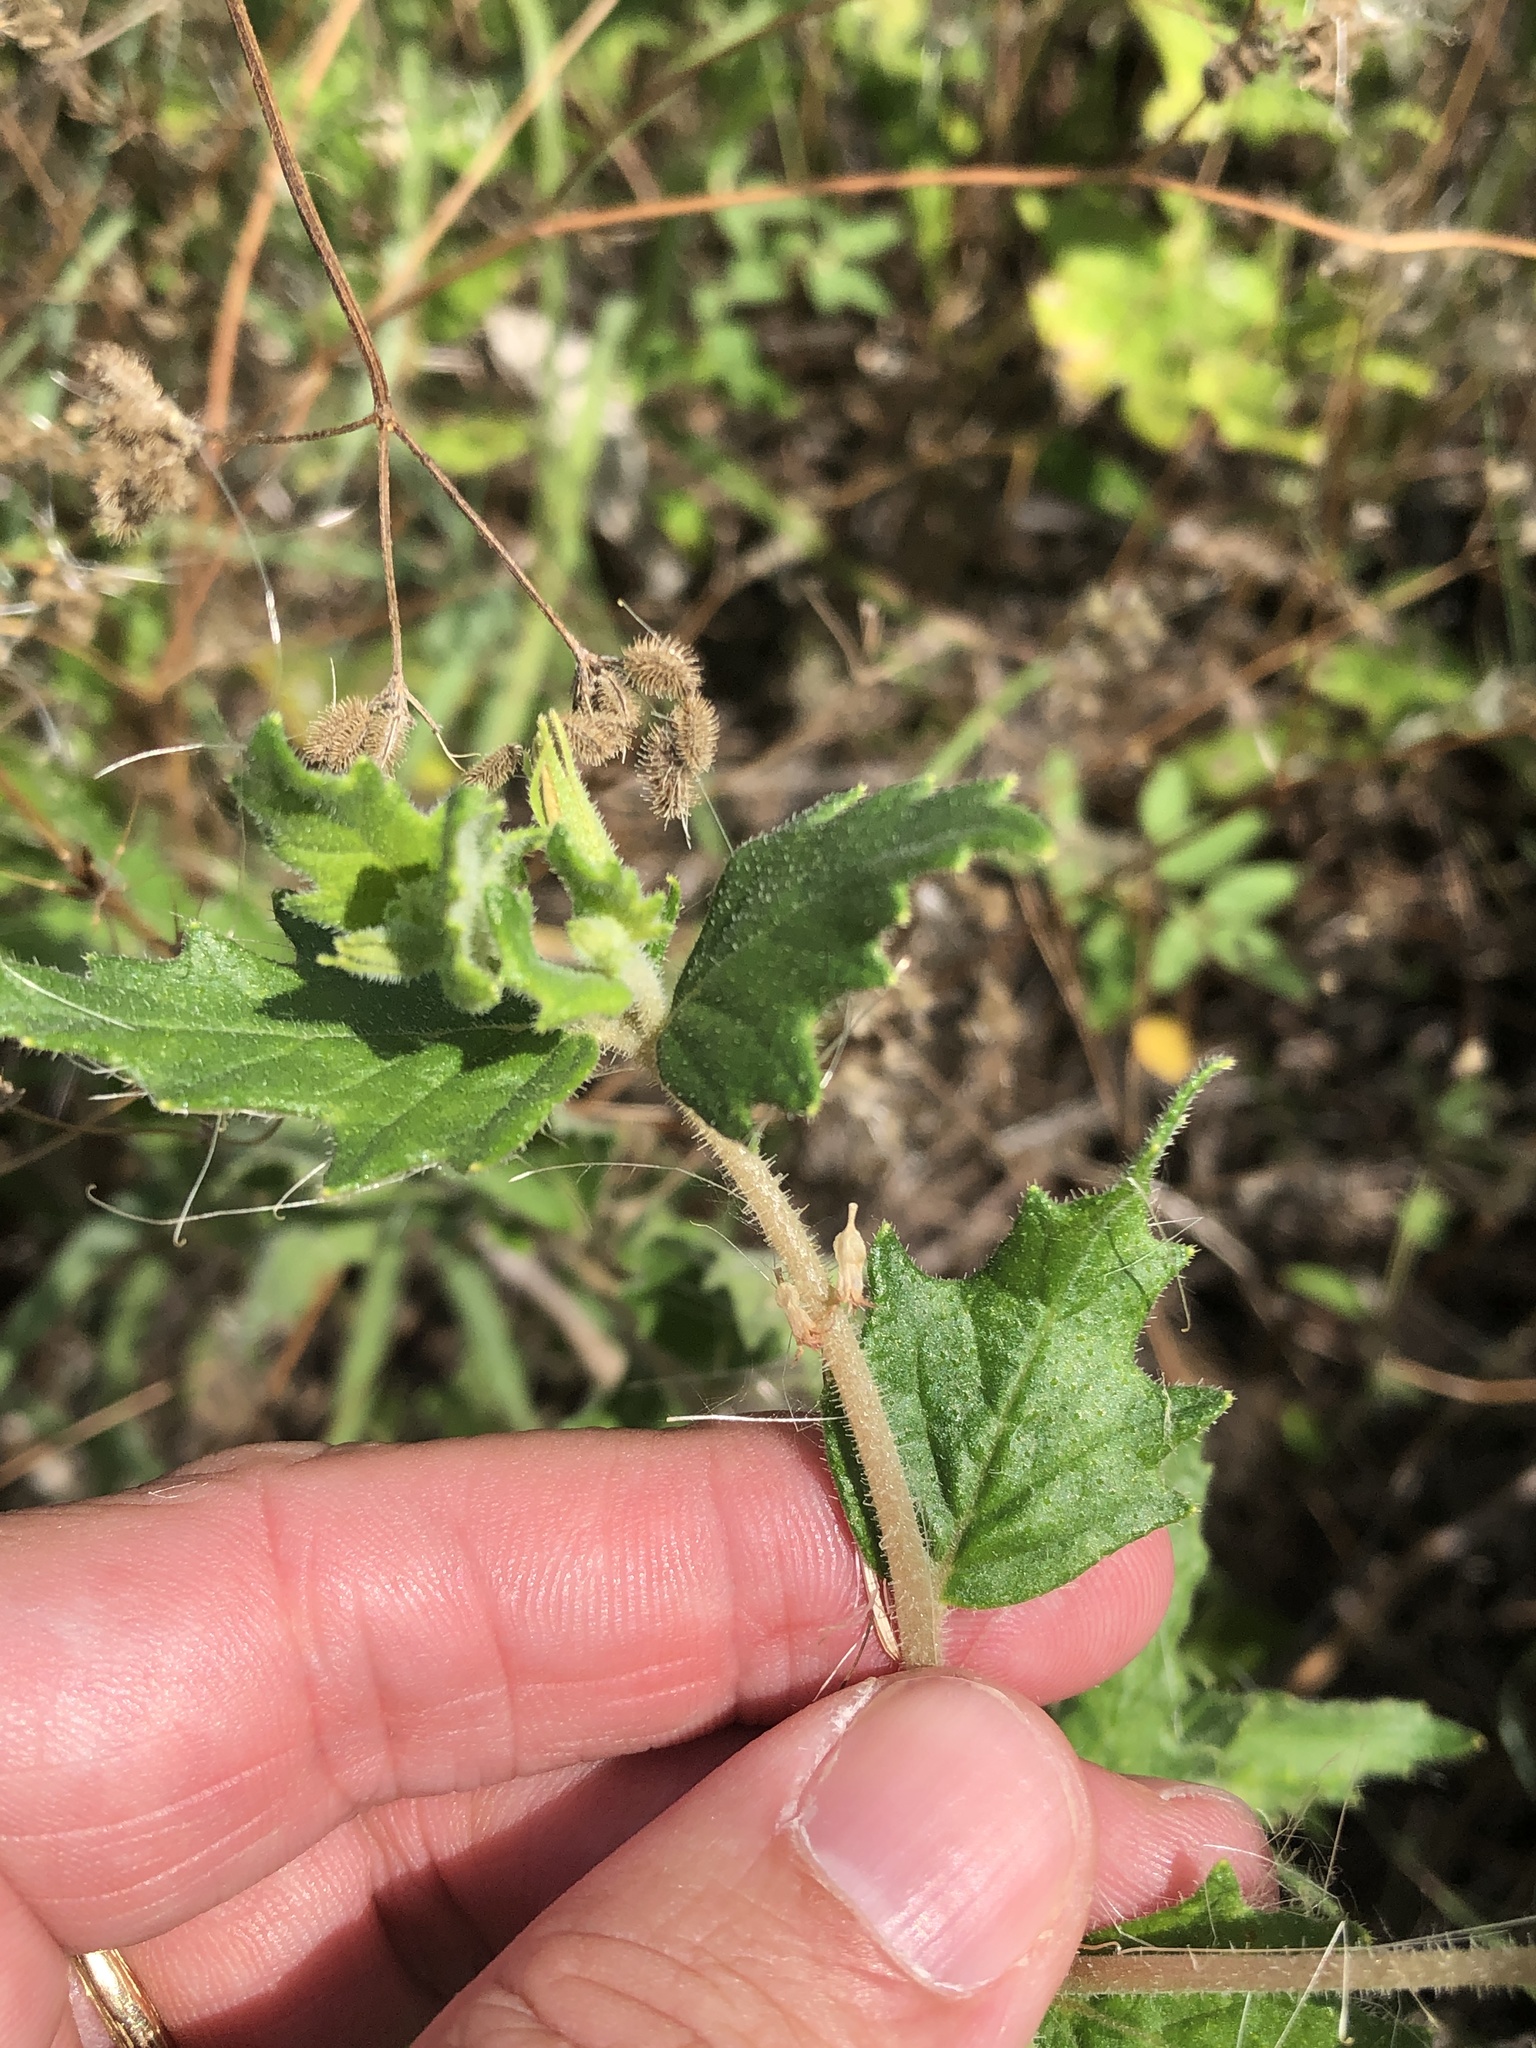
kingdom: Plantae
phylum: Tracheophyta
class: Magnoliopsida
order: Cornales
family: Loasaceae
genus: Mentzelia
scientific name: Mentzelia oligosperma
